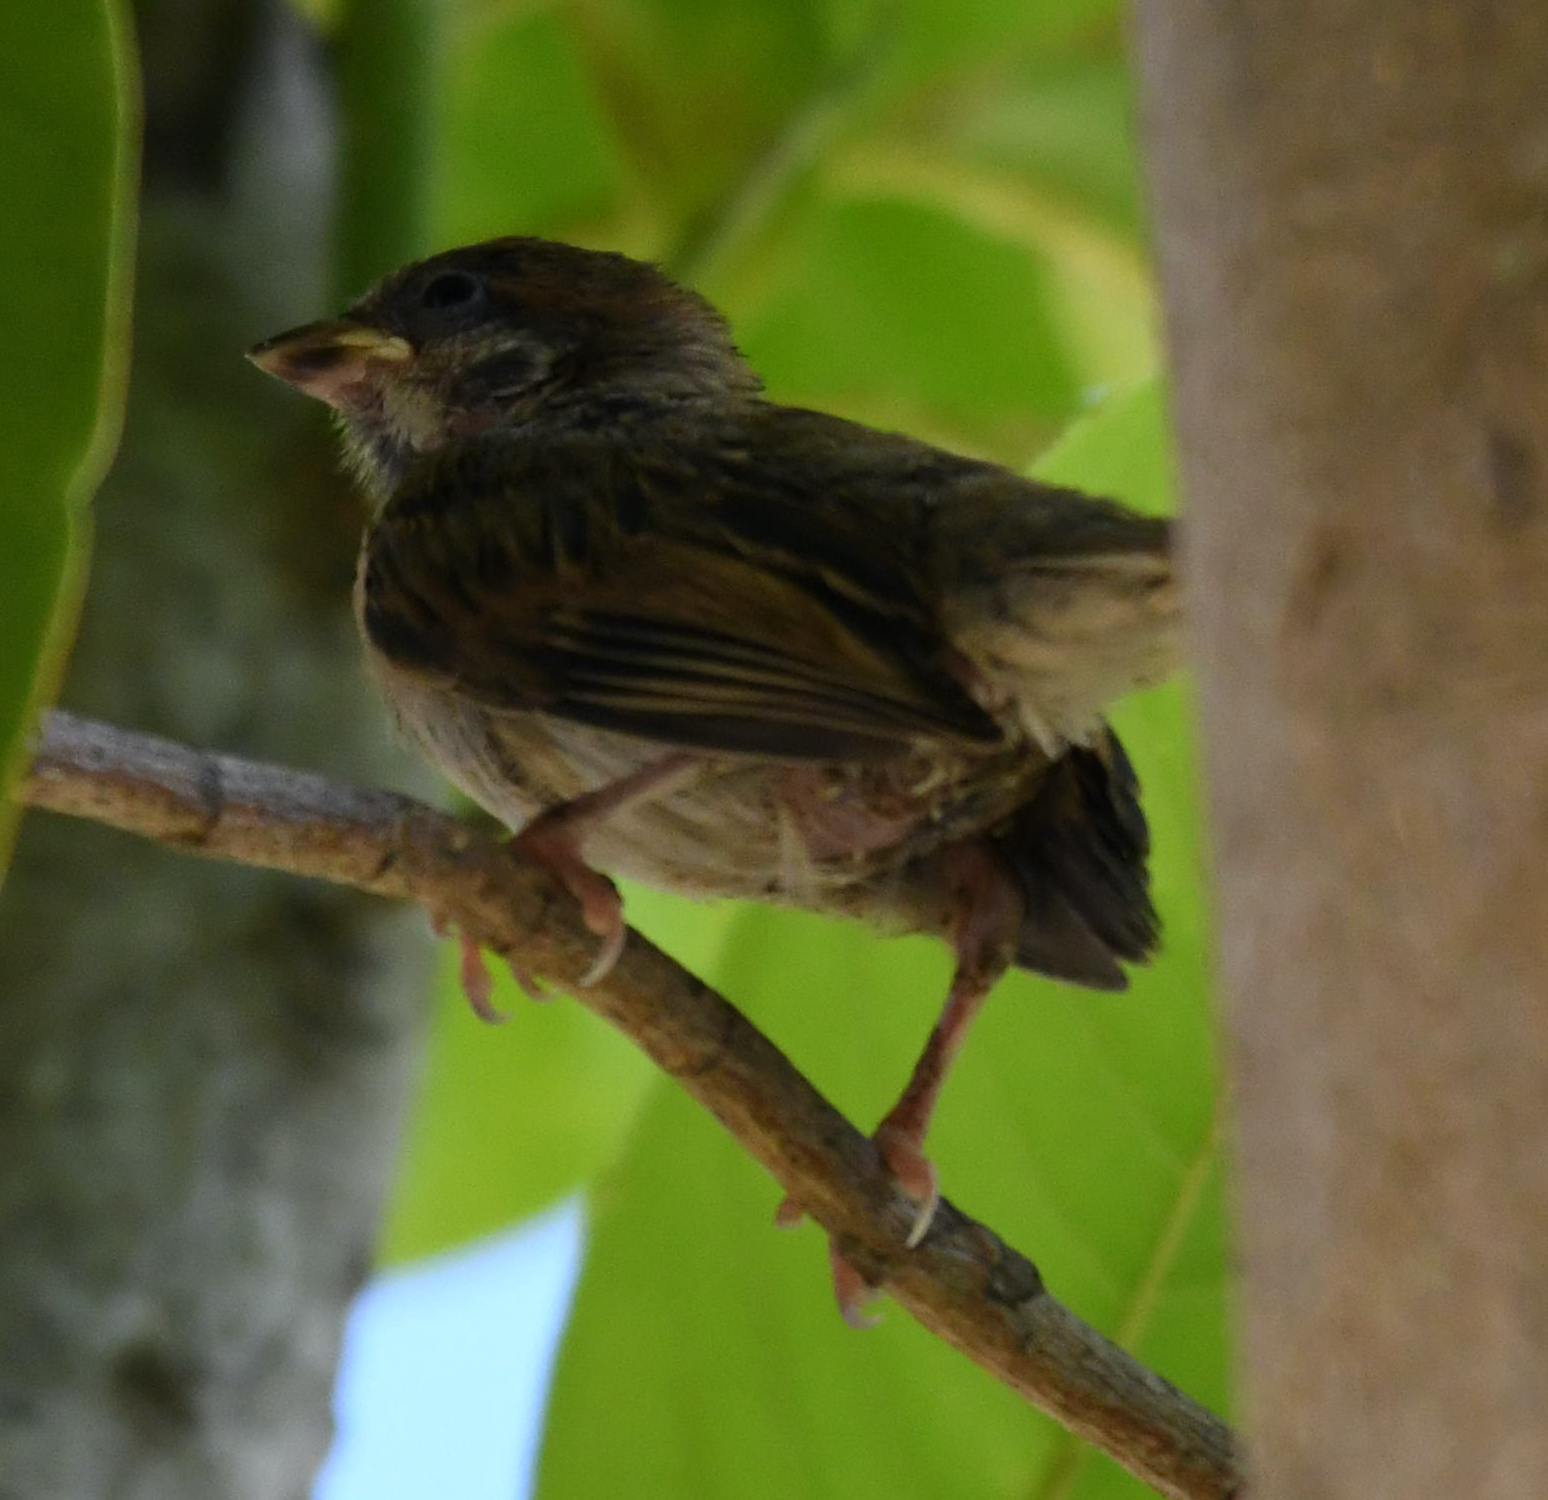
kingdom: Animalia
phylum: Chordata
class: Aves
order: Passeriformes
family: Passeridae
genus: Passer
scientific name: Passer montanus
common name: Eurasian tree sparrow
